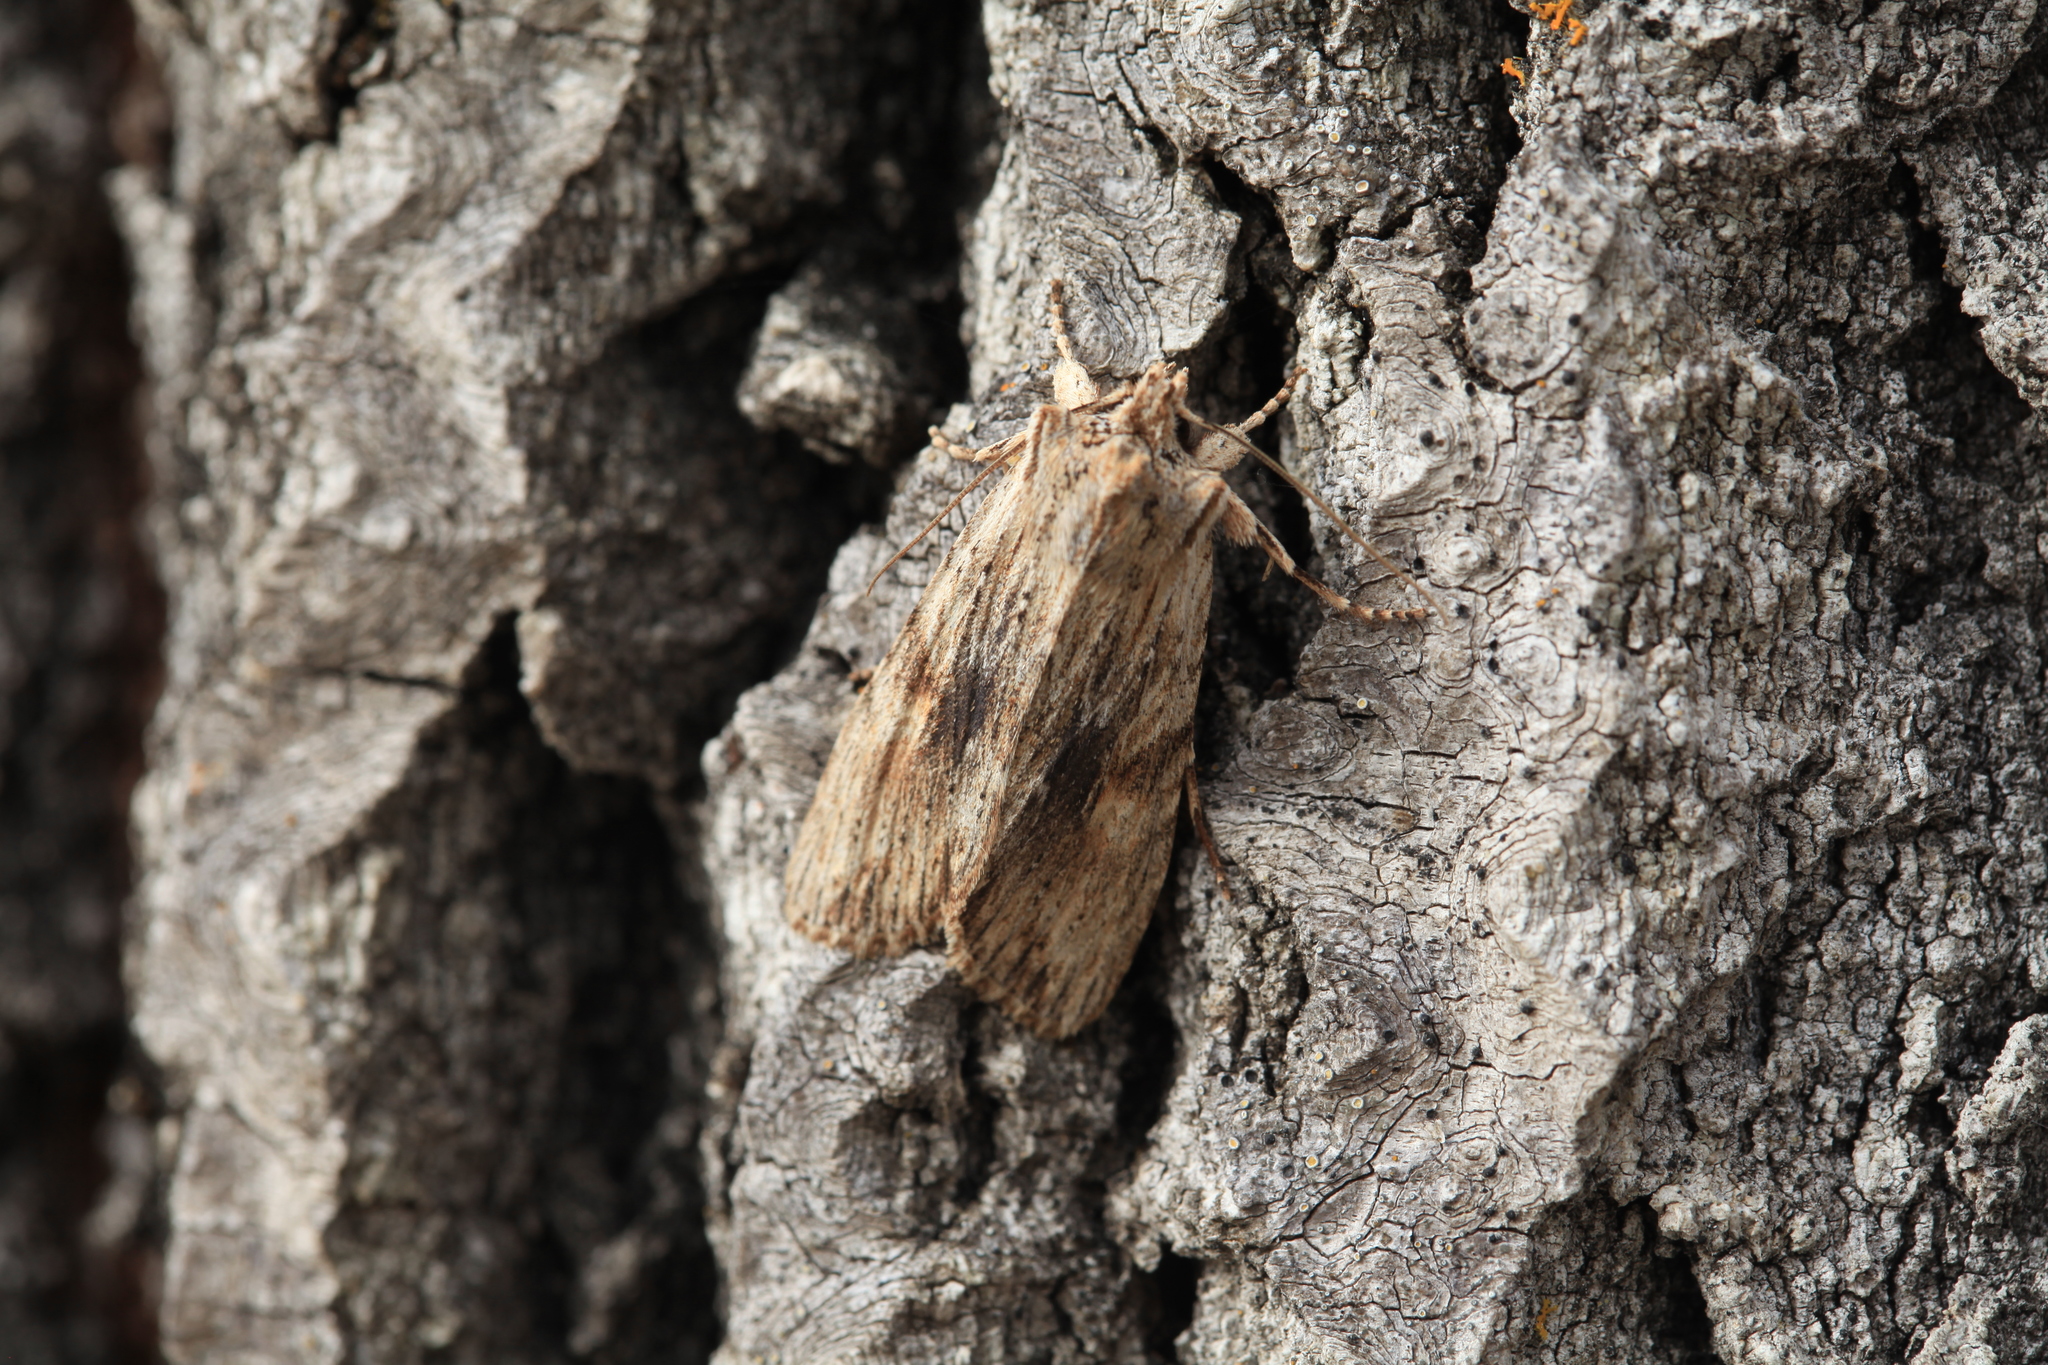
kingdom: Animalia
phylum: Arthropoda
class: Insecta
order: Lepidoptera
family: Noctuidae
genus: Lithophane
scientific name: Lithophane socia
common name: Pale pinion
